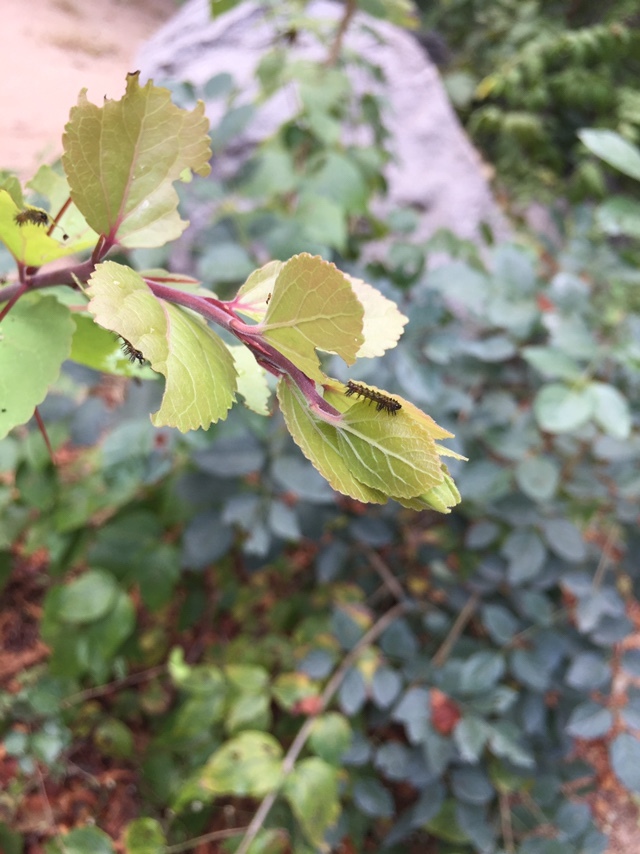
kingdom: Animalia
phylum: Arthropoda
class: Insecta
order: Lepidoptera
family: Nymphalidae
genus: Phalanta
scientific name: Phalanta phalantha
